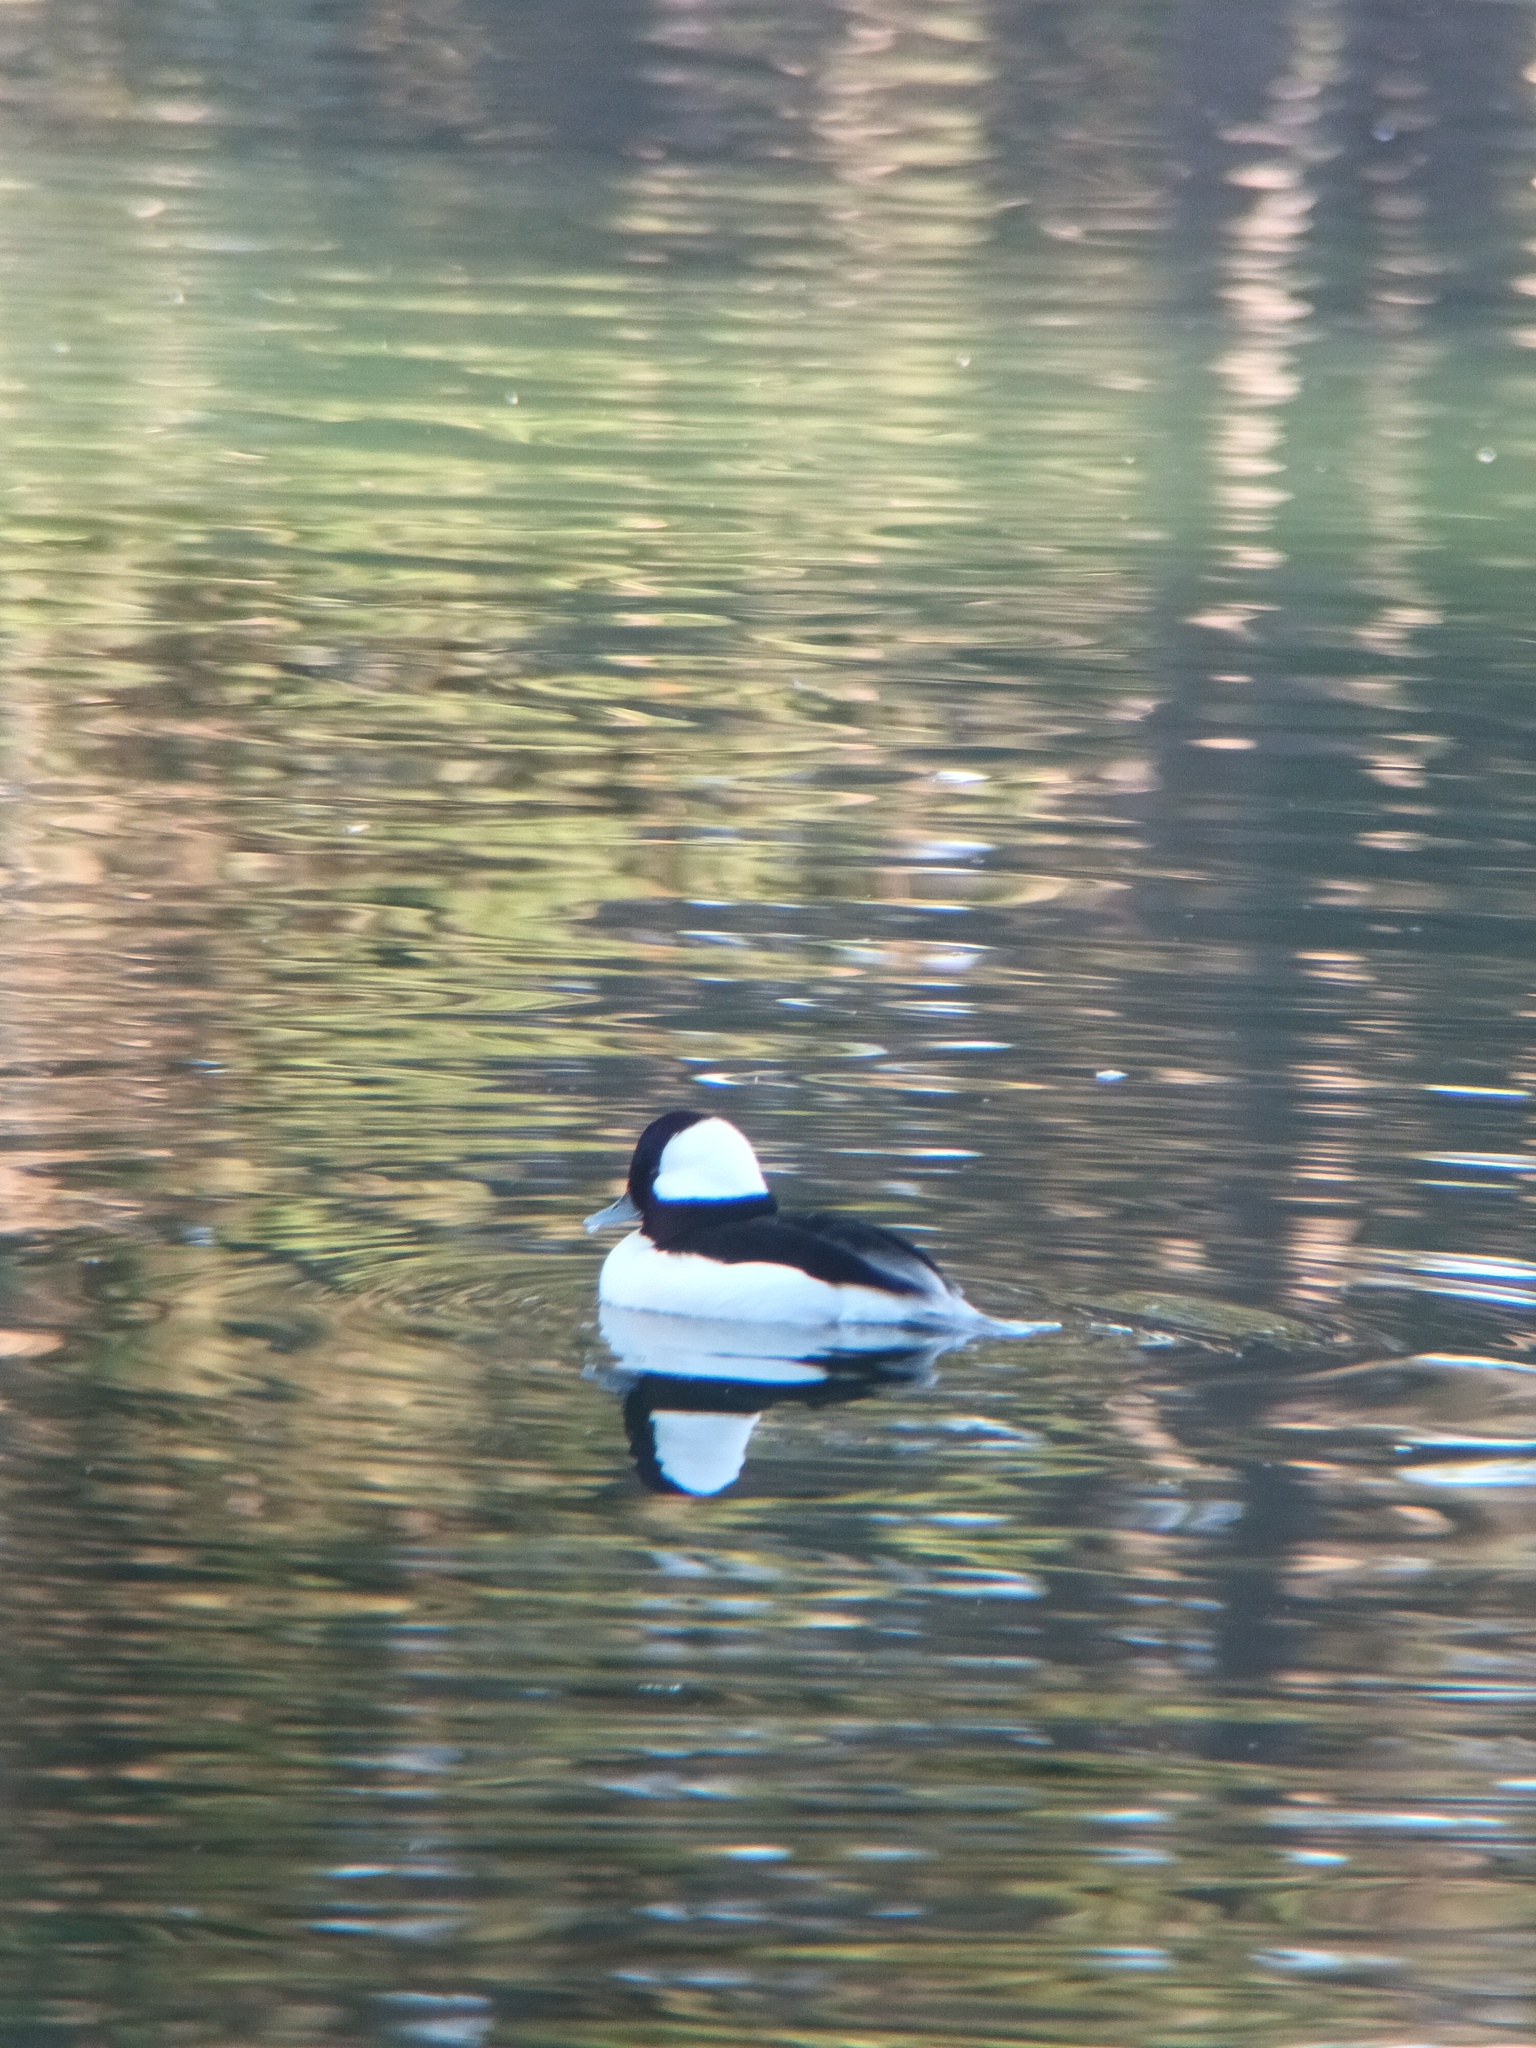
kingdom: Animalia
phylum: Chordata
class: Aves
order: Anseriformes
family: Anatidae
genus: Bucephala
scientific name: Bucephala albeola
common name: Bufflehead
